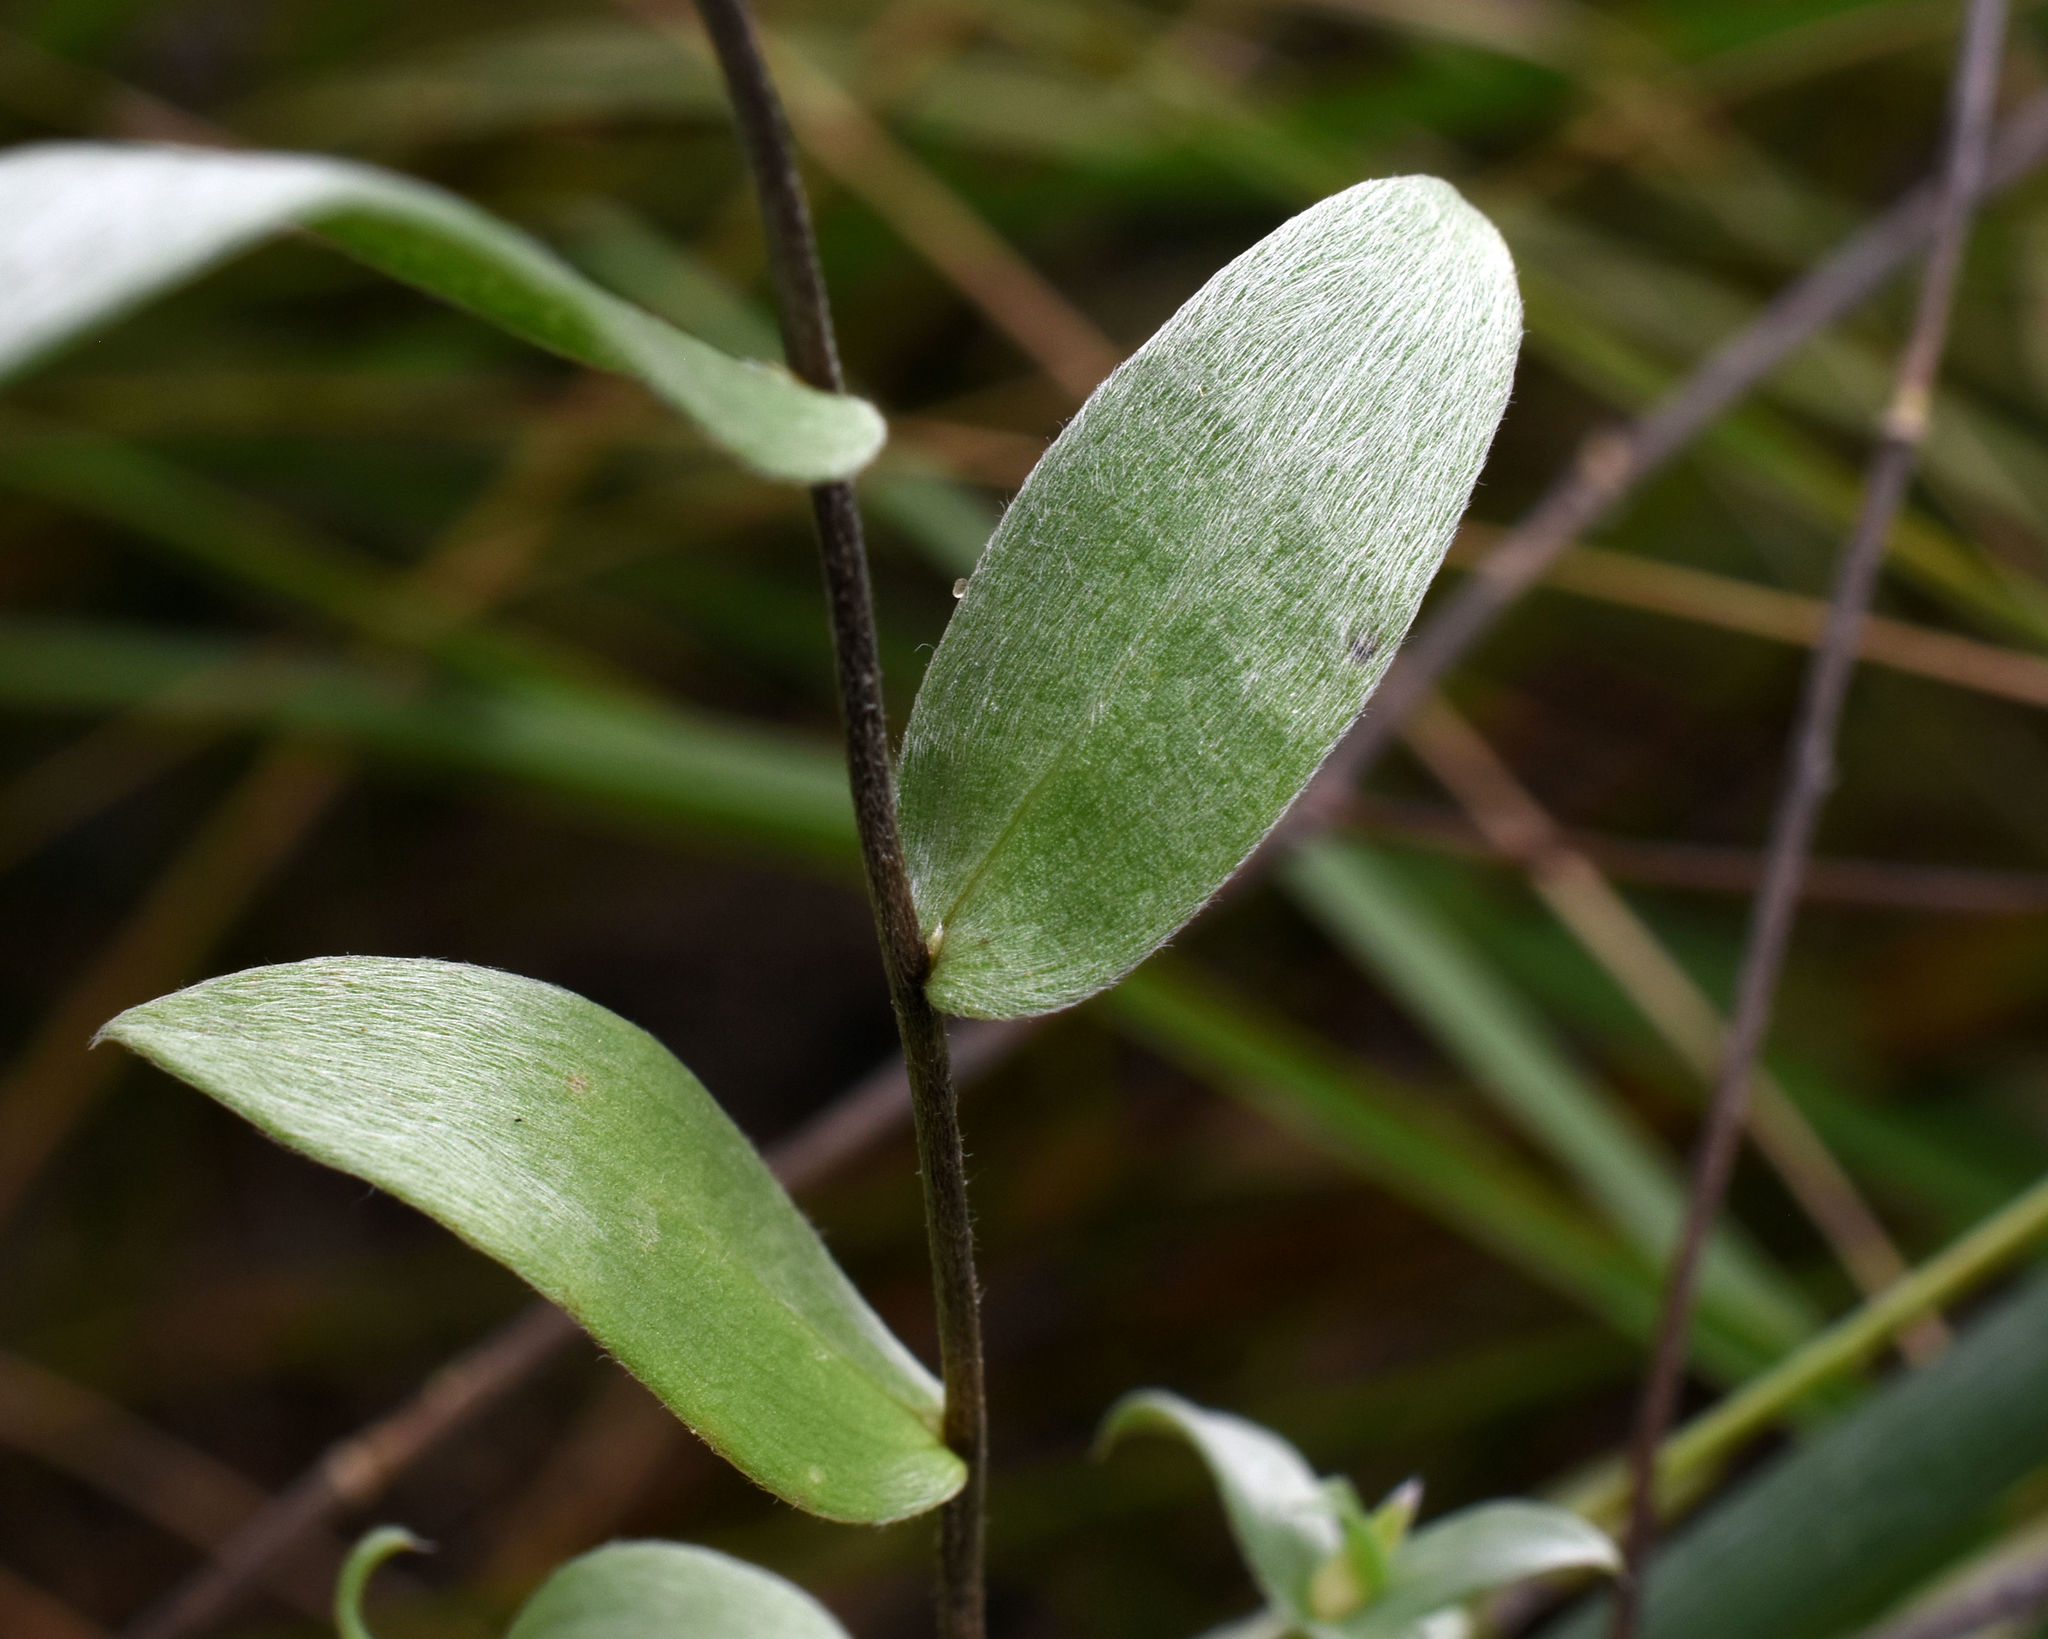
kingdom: Plantae
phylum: Tracheophyta
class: Magnoliopsida
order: Asterales
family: Asteraceae
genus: Symphyotrichum
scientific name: Symphyotrichum sericeum
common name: Silky aster
